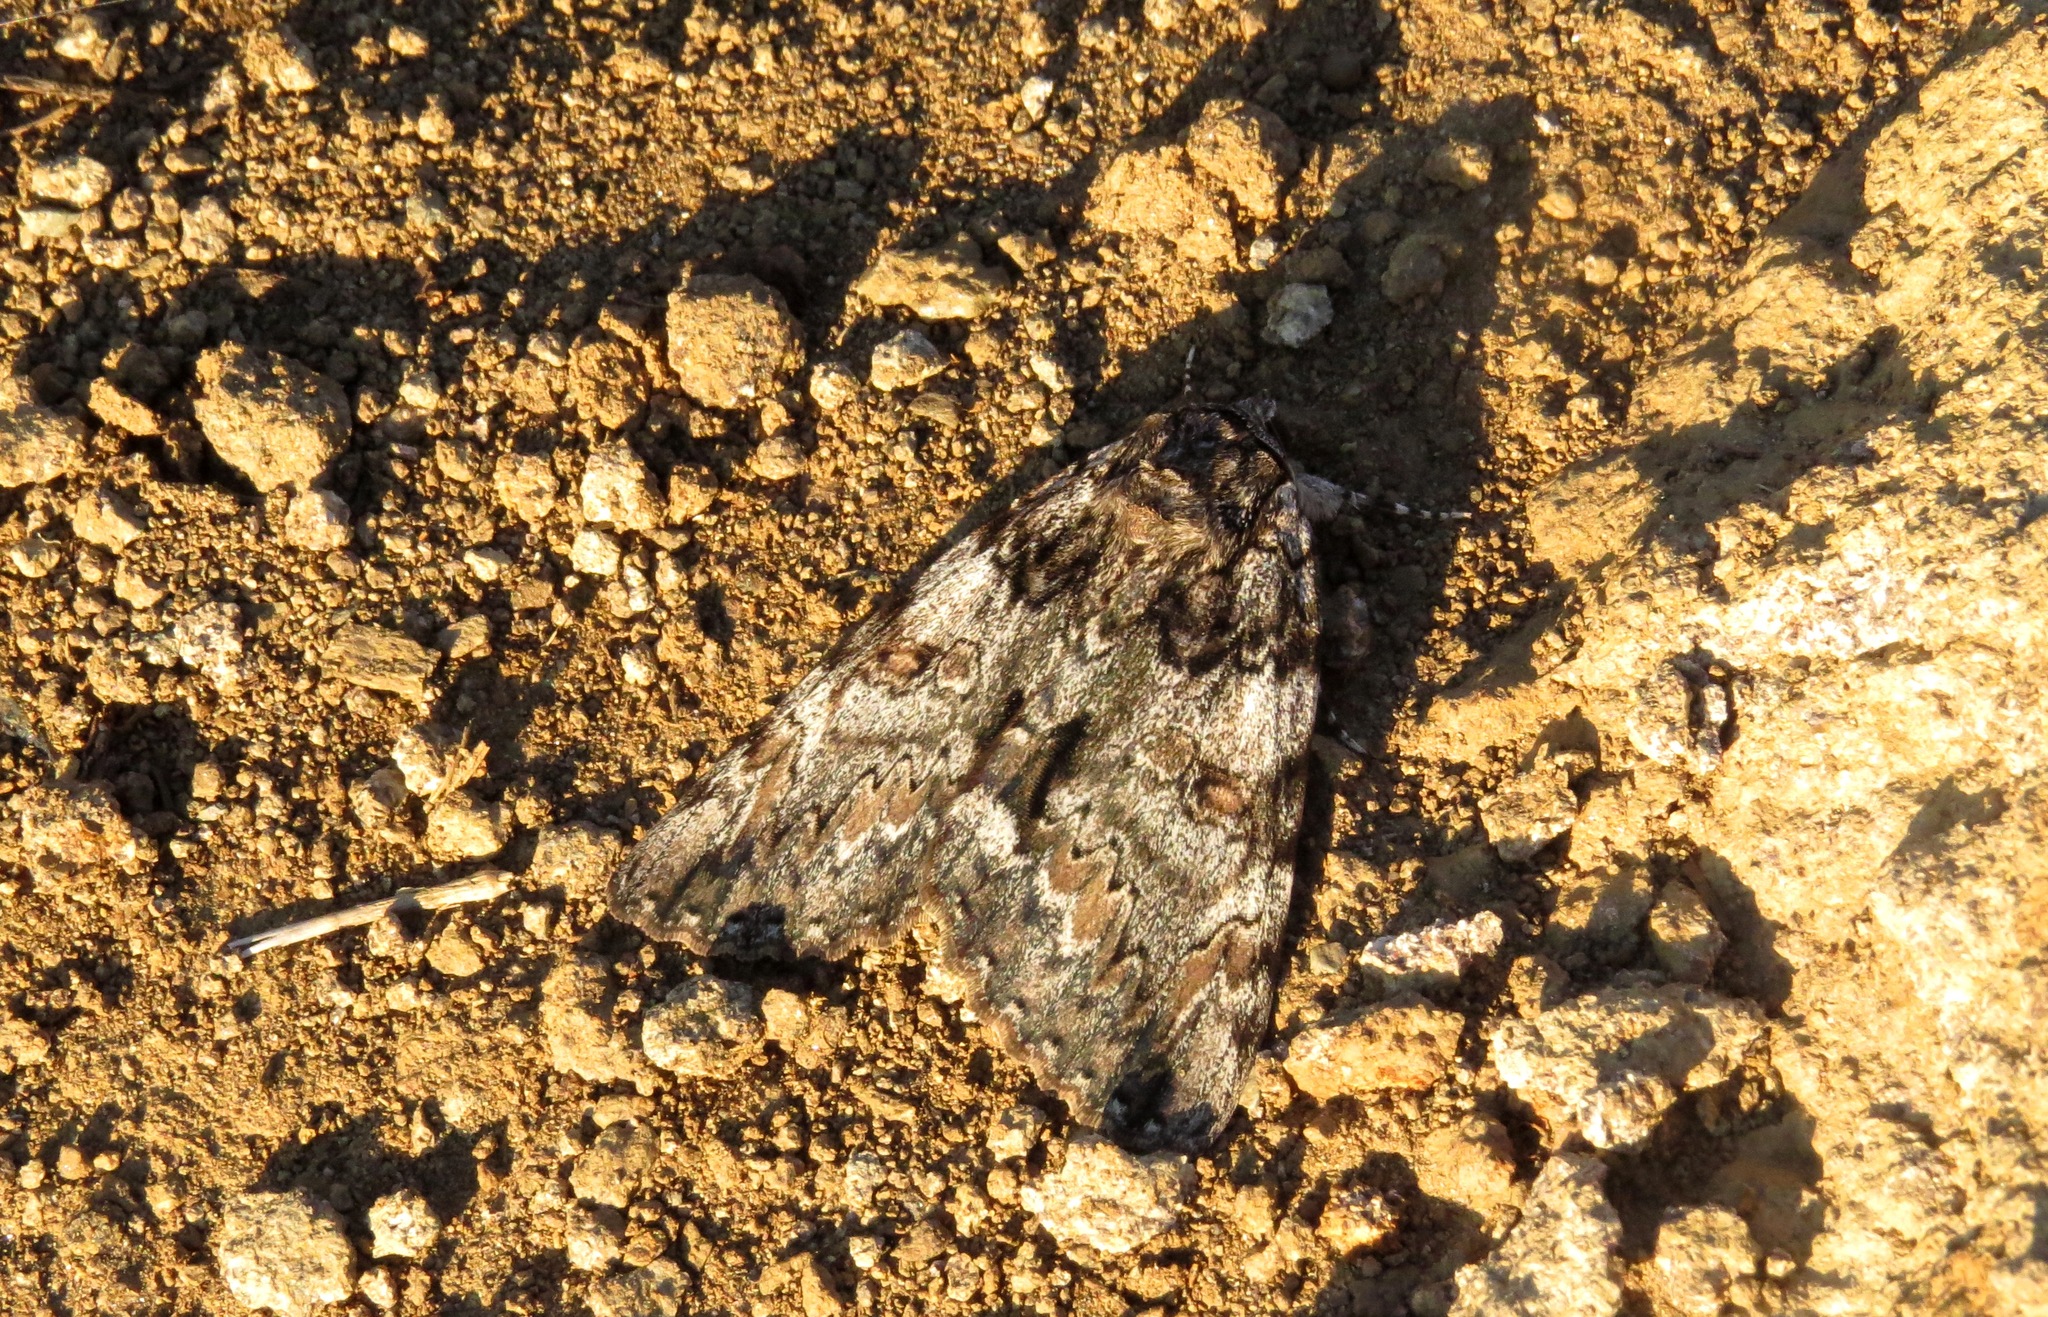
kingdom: Animalia
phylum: Arthropoda
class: Insecta
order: Lepidoptera
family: Erebidae
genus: Catocala
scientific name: Catocala ilia
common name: Ilia underwing
